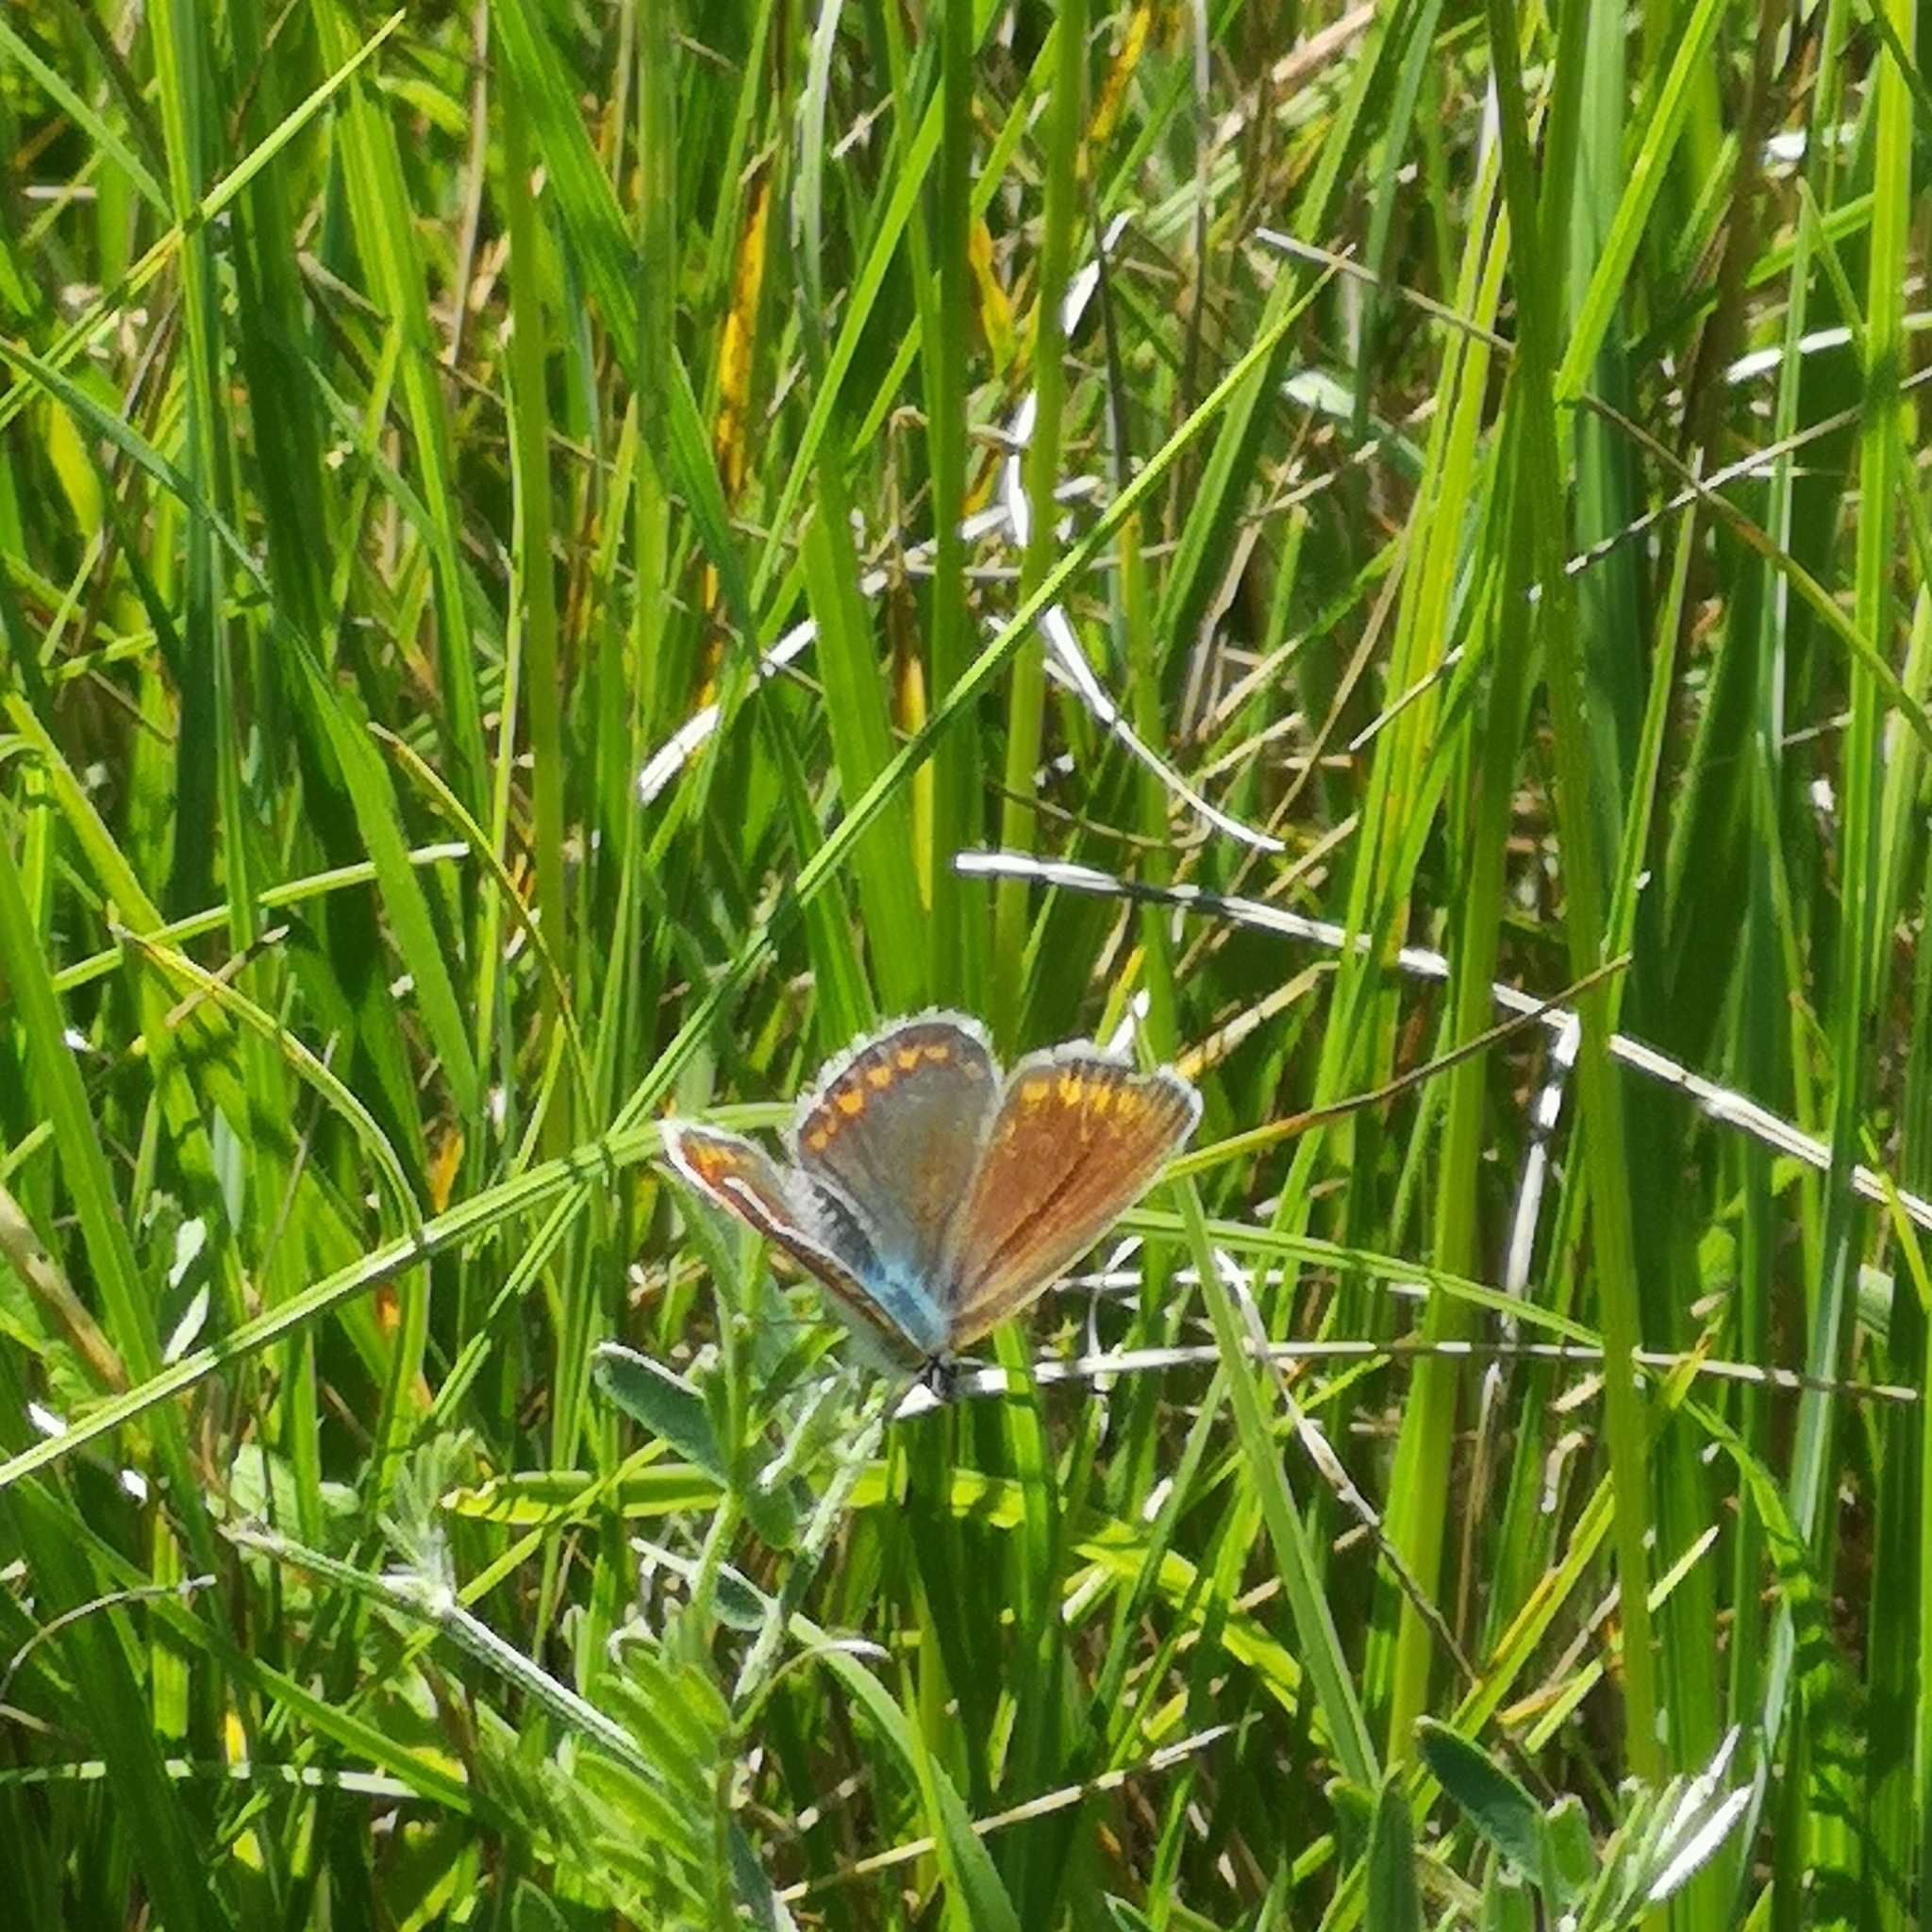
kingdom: Animalia
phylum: Arthropoda
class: Insecta
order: Lepidoptera
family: Lycaenidae
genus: Polyommatus
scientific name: Polyommatus icarus
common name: Common blue
